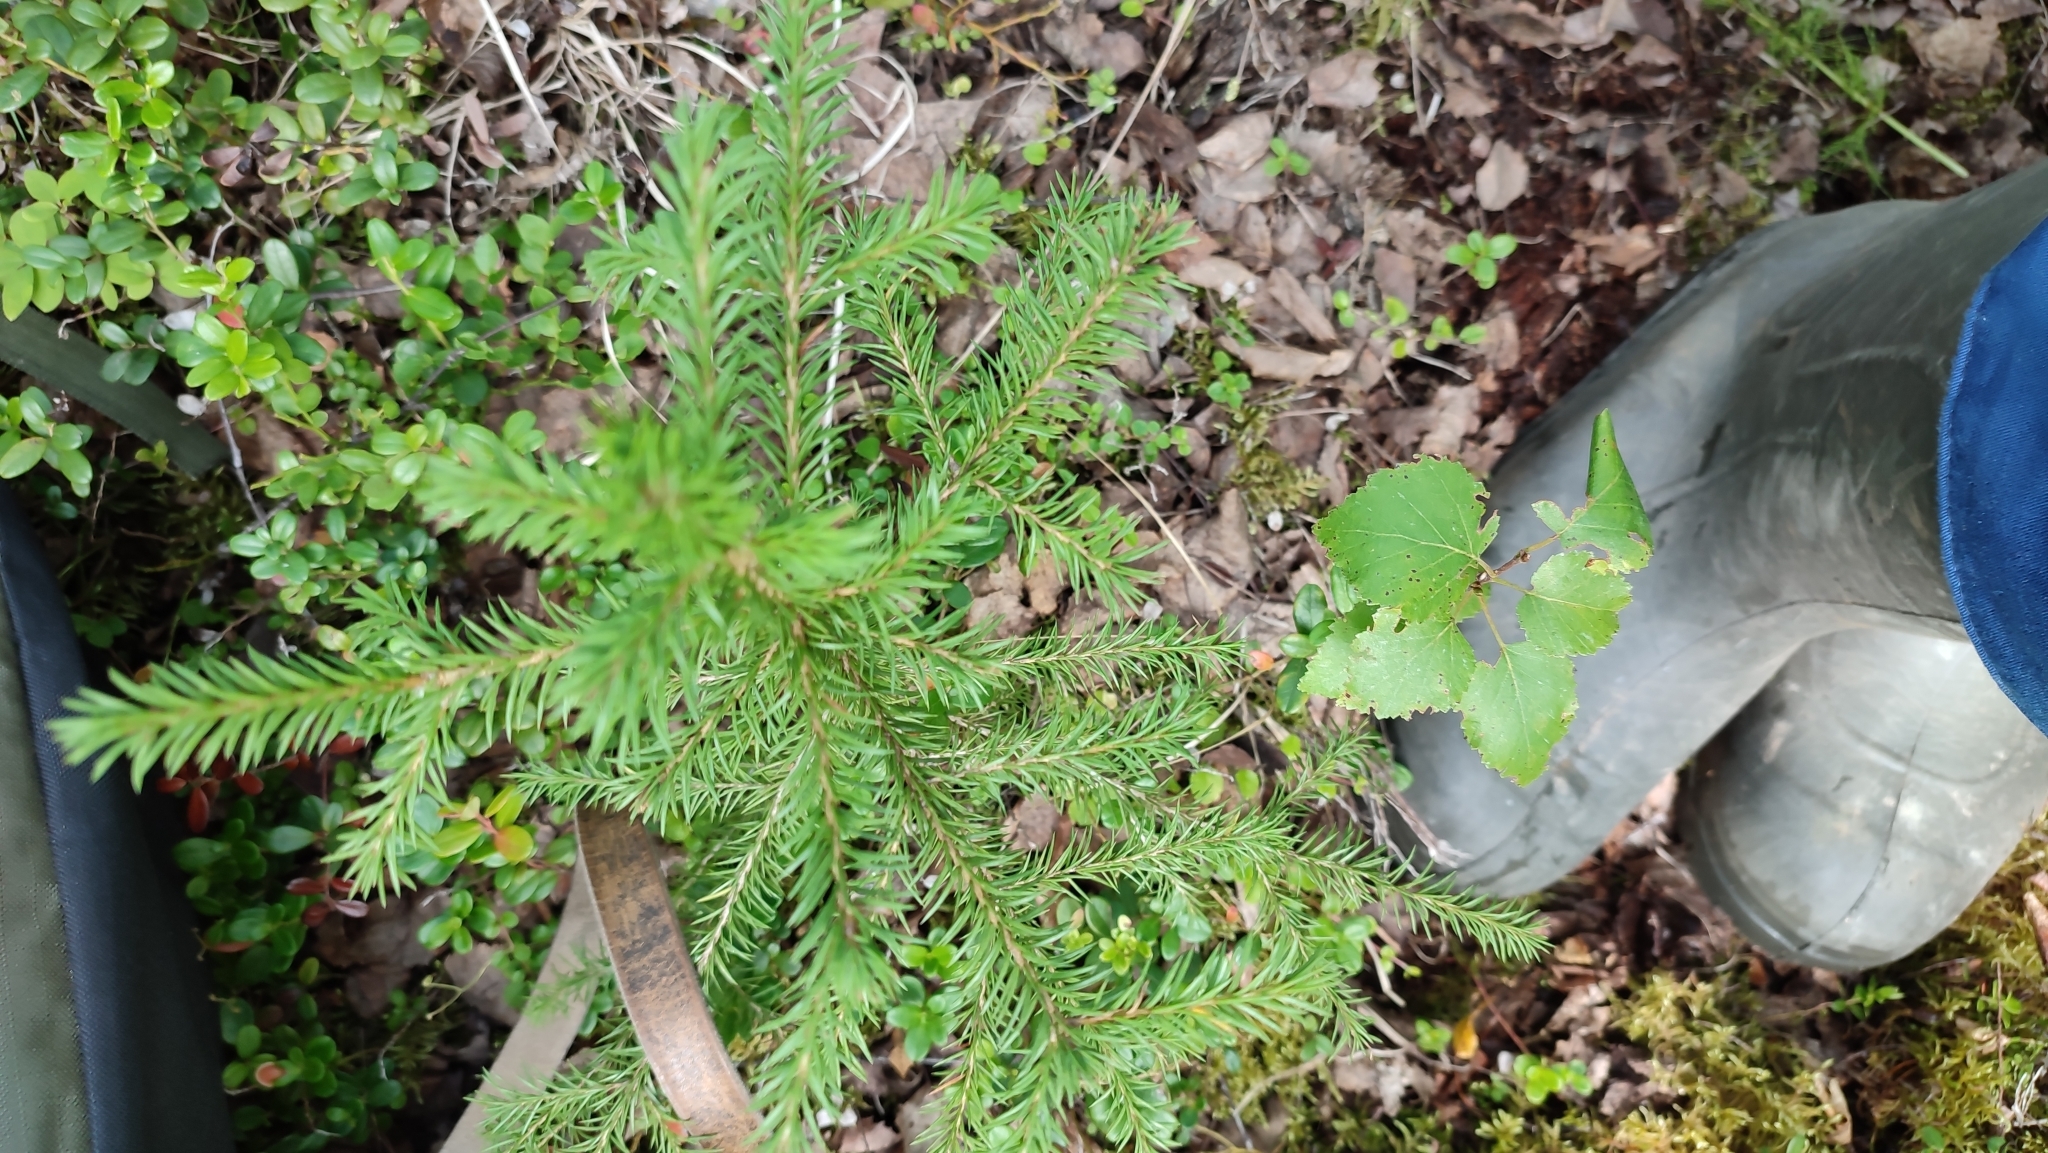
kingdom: Plantae
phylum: Tracheophyta
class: Pinopsida
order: Pinales
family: Pinaceae
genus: Picea
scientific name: Picea obovata
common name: Siberian spruce
